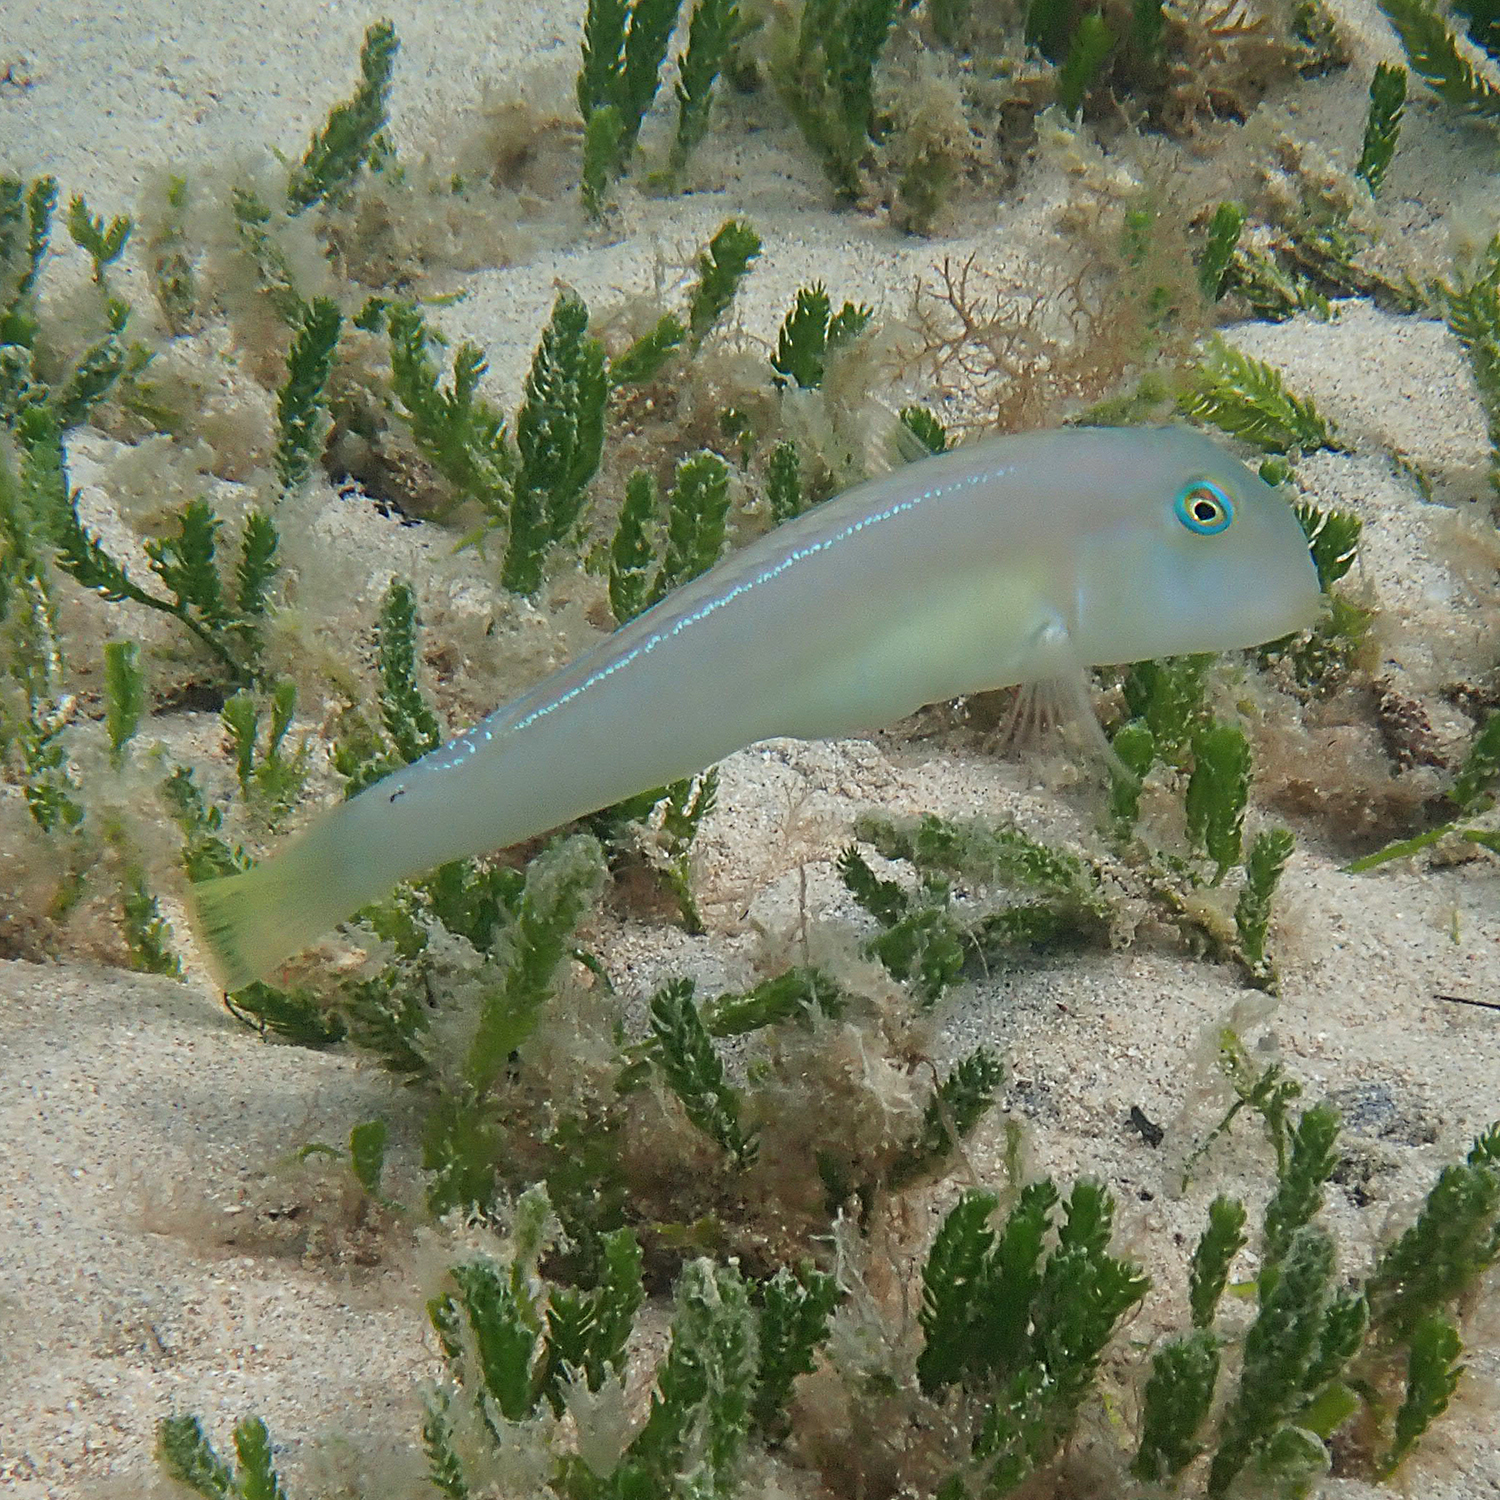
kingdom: Animalia
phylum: Chordata
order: Perciformes
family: Labridae
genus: Cymolutes
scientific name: Cymolutes praetextatus
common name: Knife razorfish
